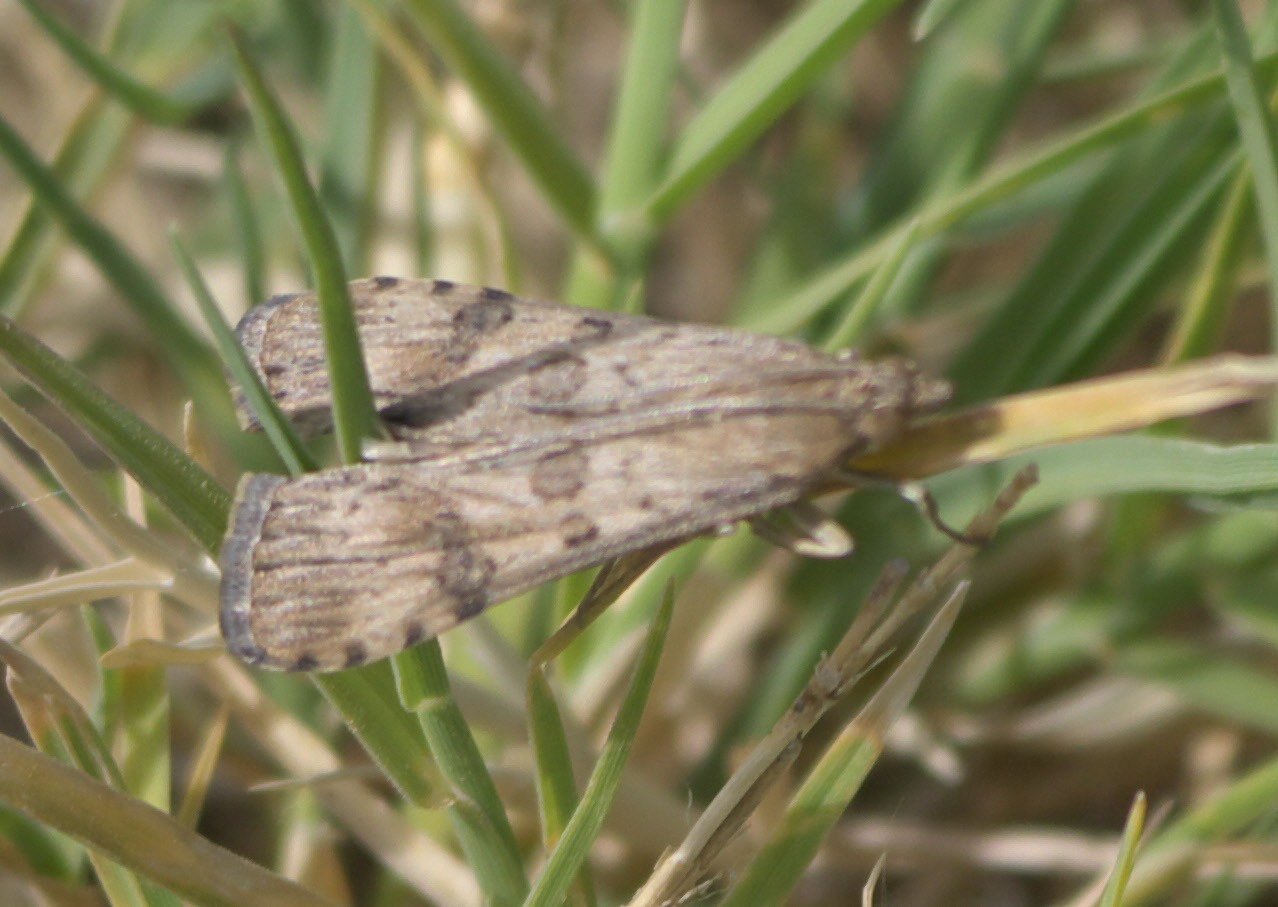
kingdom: Animalia
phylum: Arthropoda
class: Insecta
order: Lepidoptera
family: Crambidae
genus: Nomophila
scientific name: Nomophila nearctica
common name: American rush veneer
